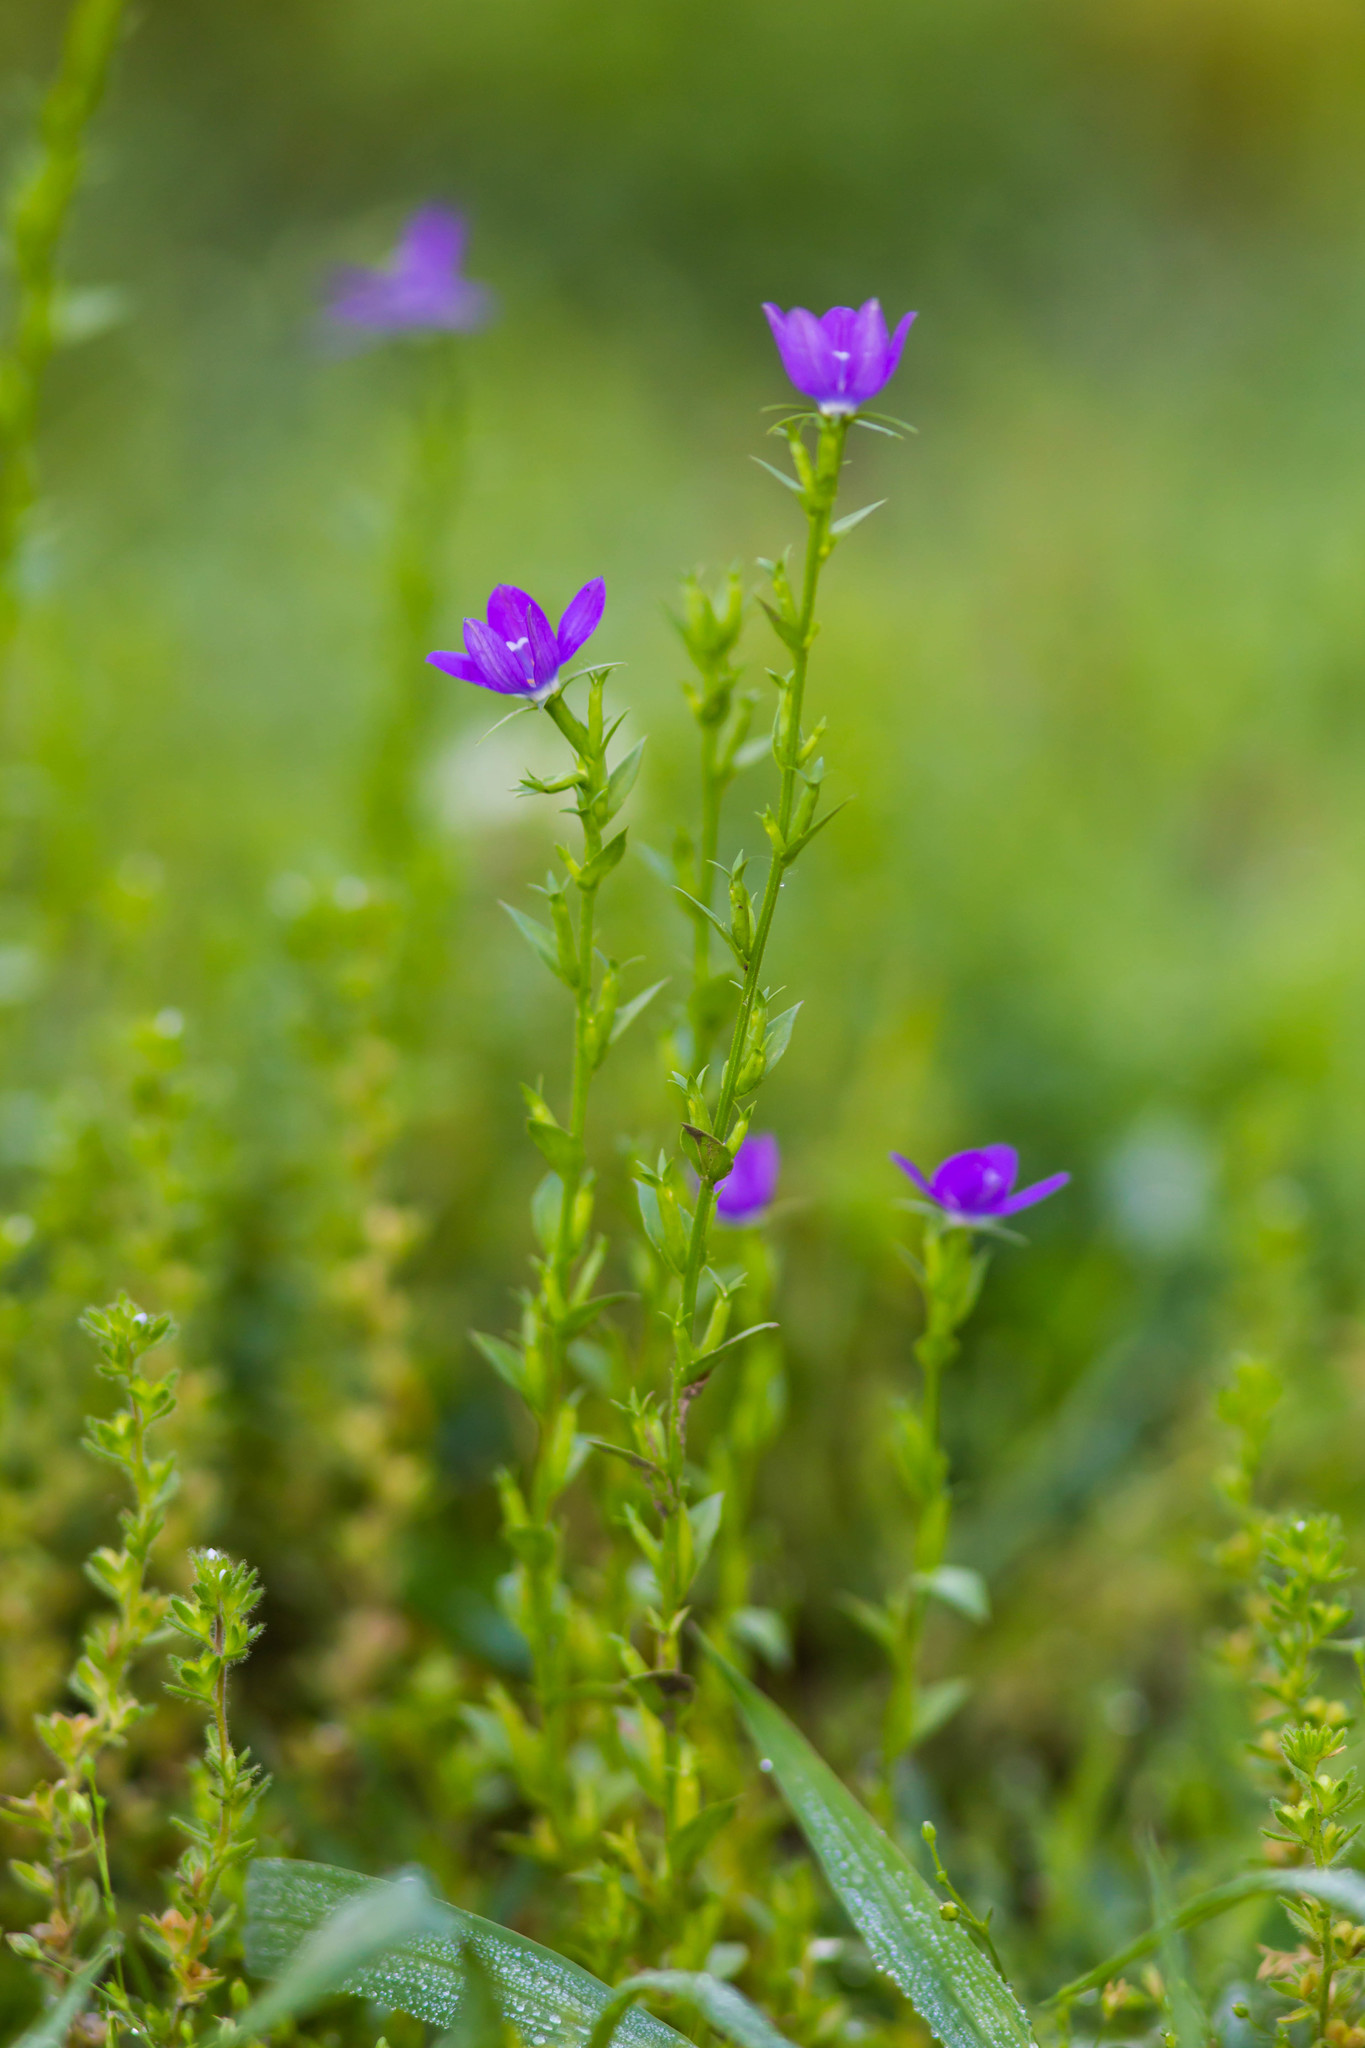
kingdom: Plantae
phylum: Tracheophyta
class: Magnoliopsida
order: Asterales
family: Campanulaceae
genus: Triodanis
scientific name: Triodanis biflora
